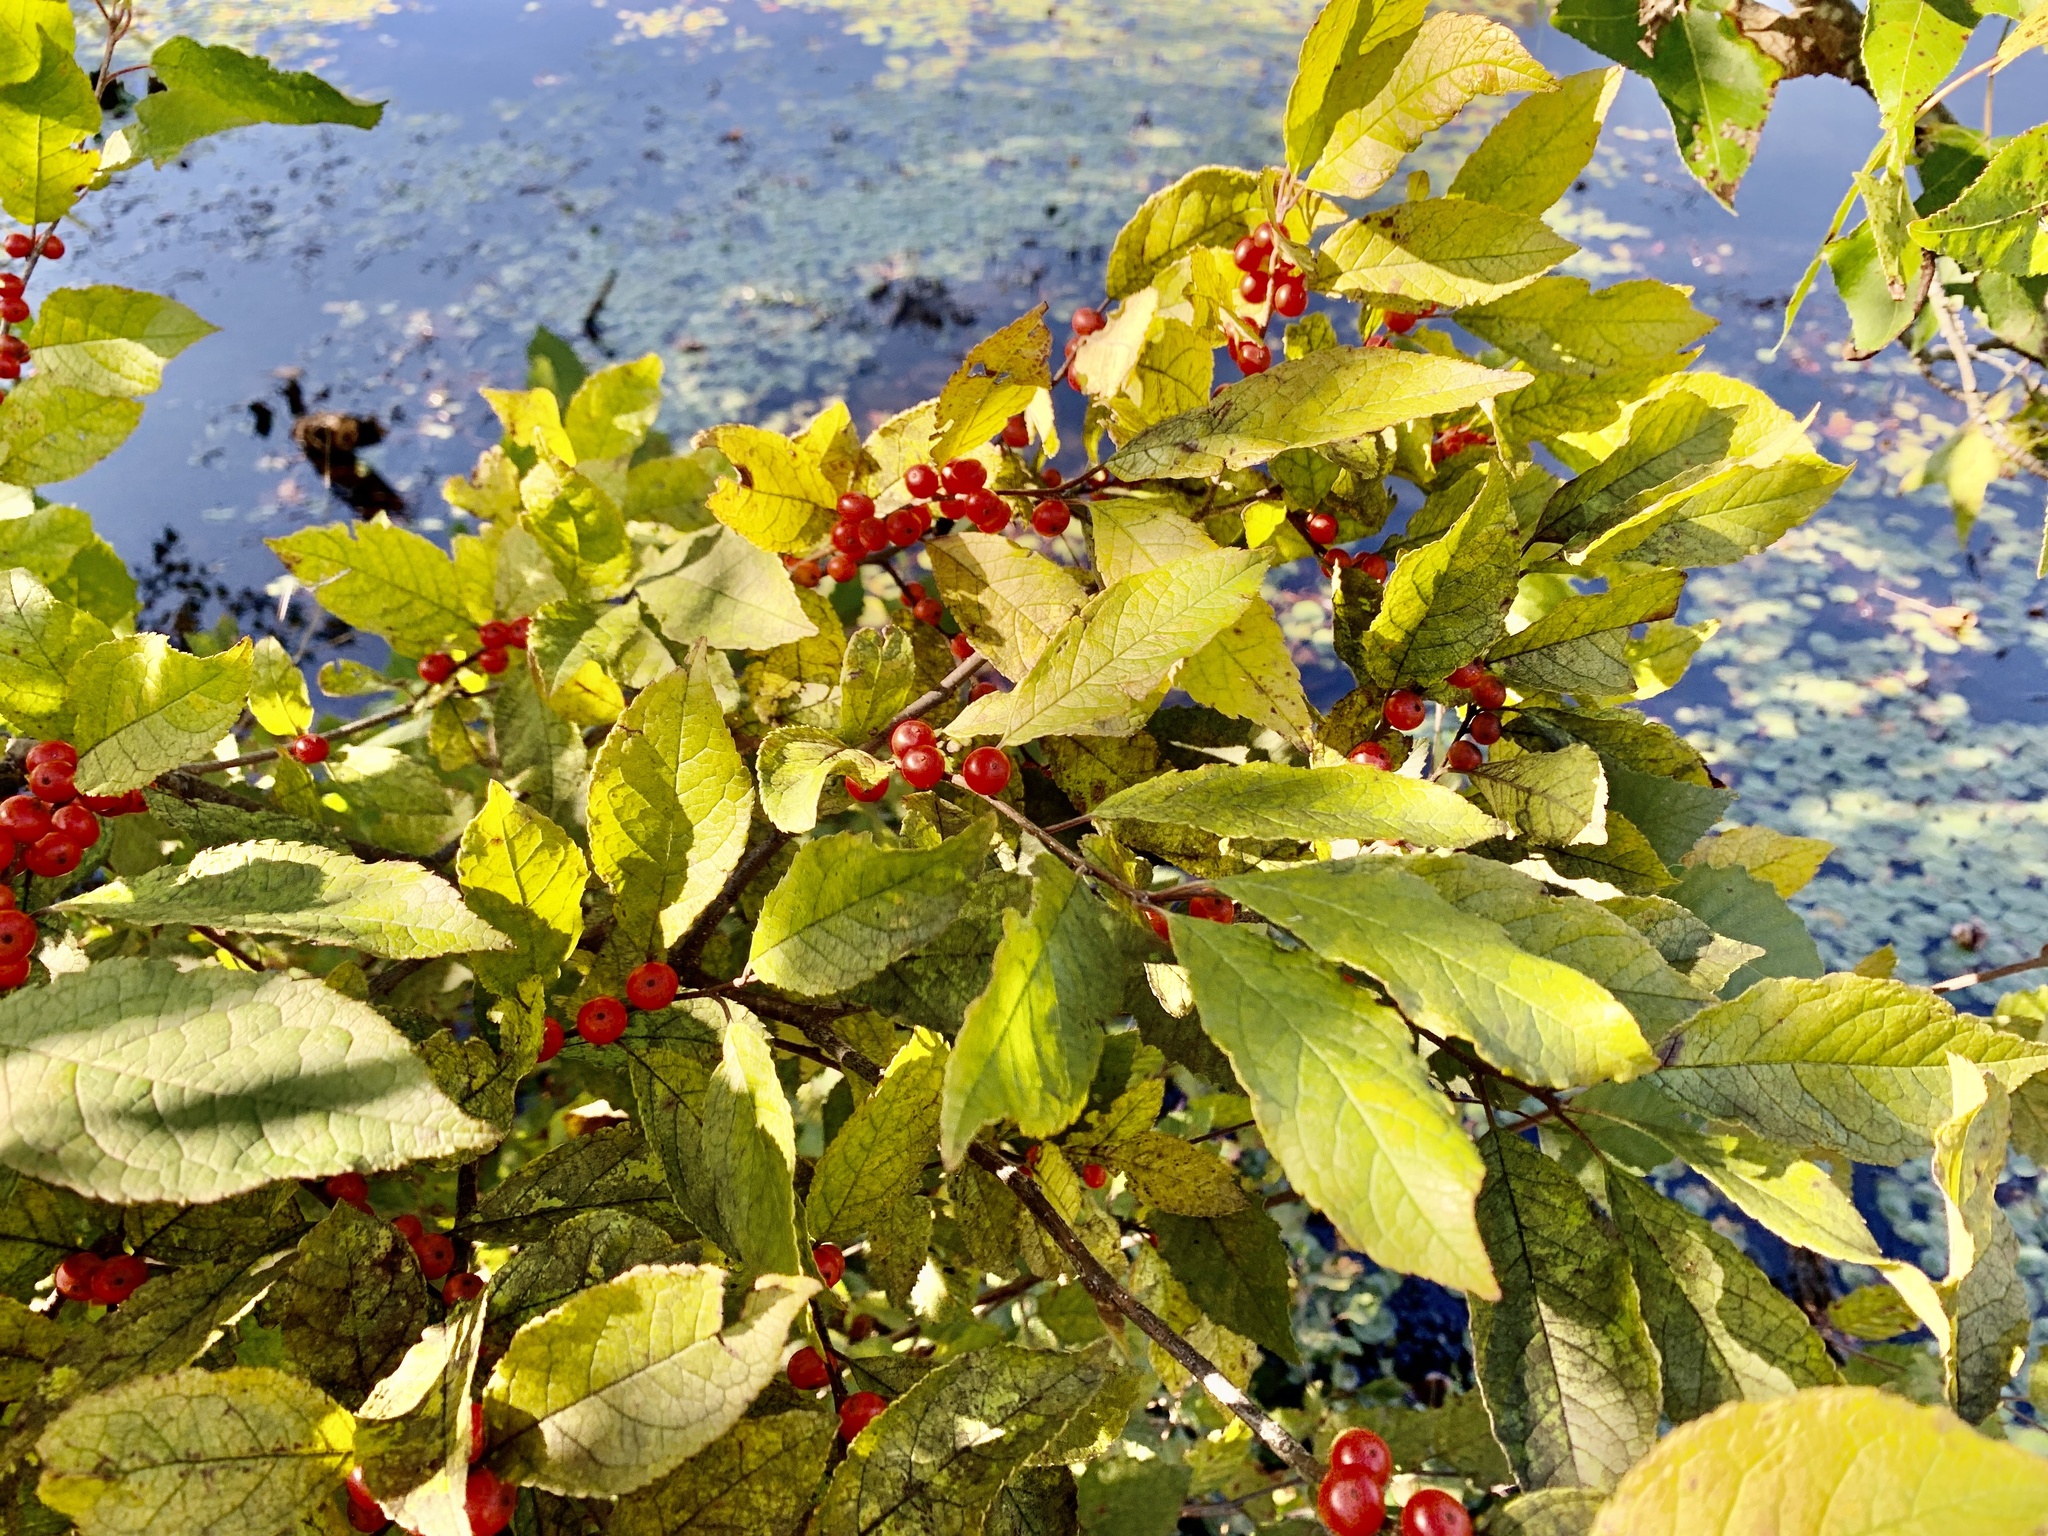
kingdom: Plantae
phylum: Tracheophyta
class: Magnoliopsida
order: Aquifoliales
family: Aquifoliaceae
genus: Ilex
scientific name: Ilex verticillata
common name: Virginia winterberry
